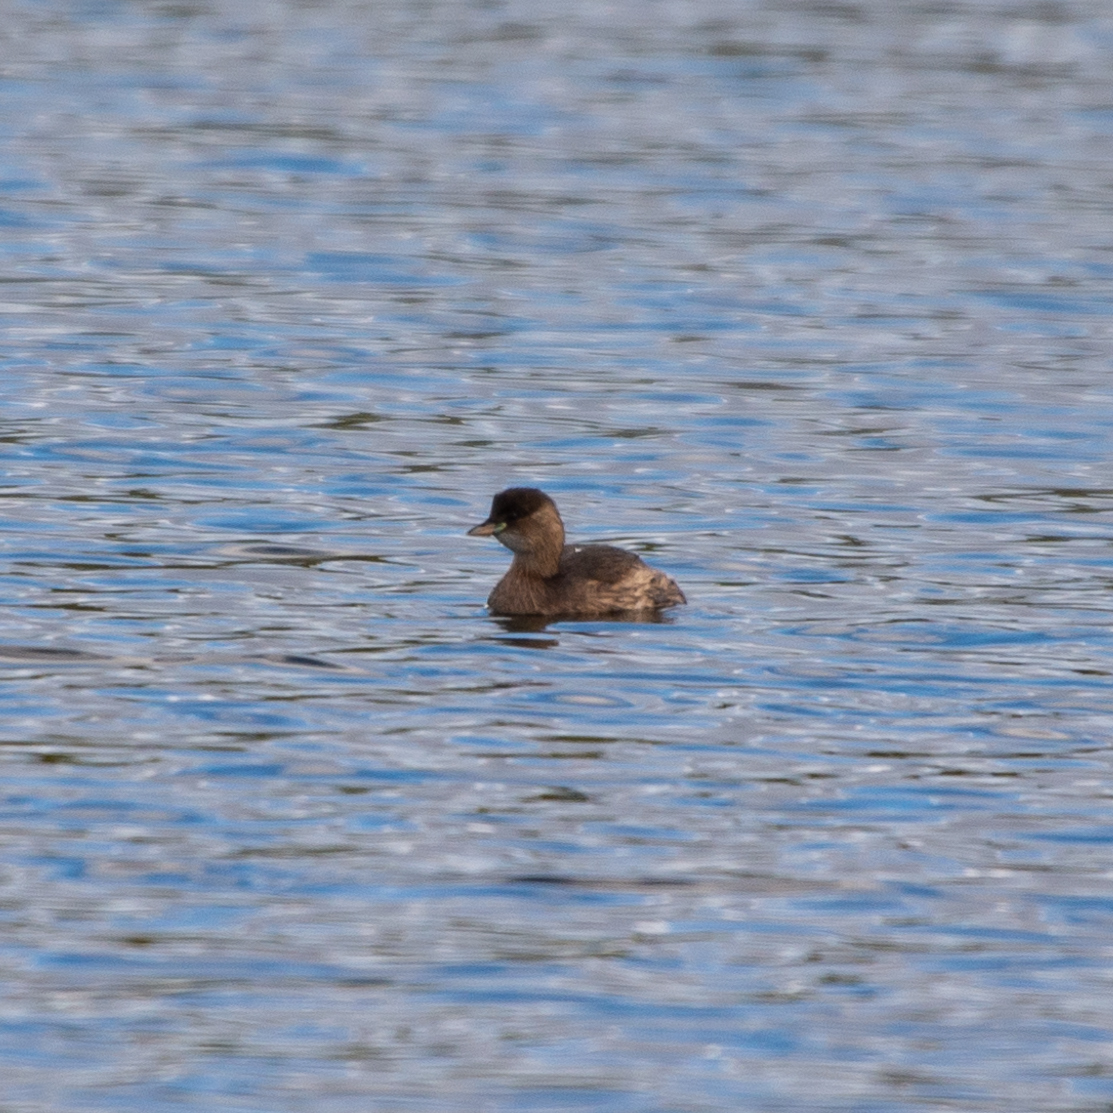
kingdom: Animalia
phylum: Chordata
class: Aves
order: Podicipediformes
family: Podicipedidae
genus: Tachybaptus
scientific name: Tachybaptus ruficollis
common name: Little grebe
